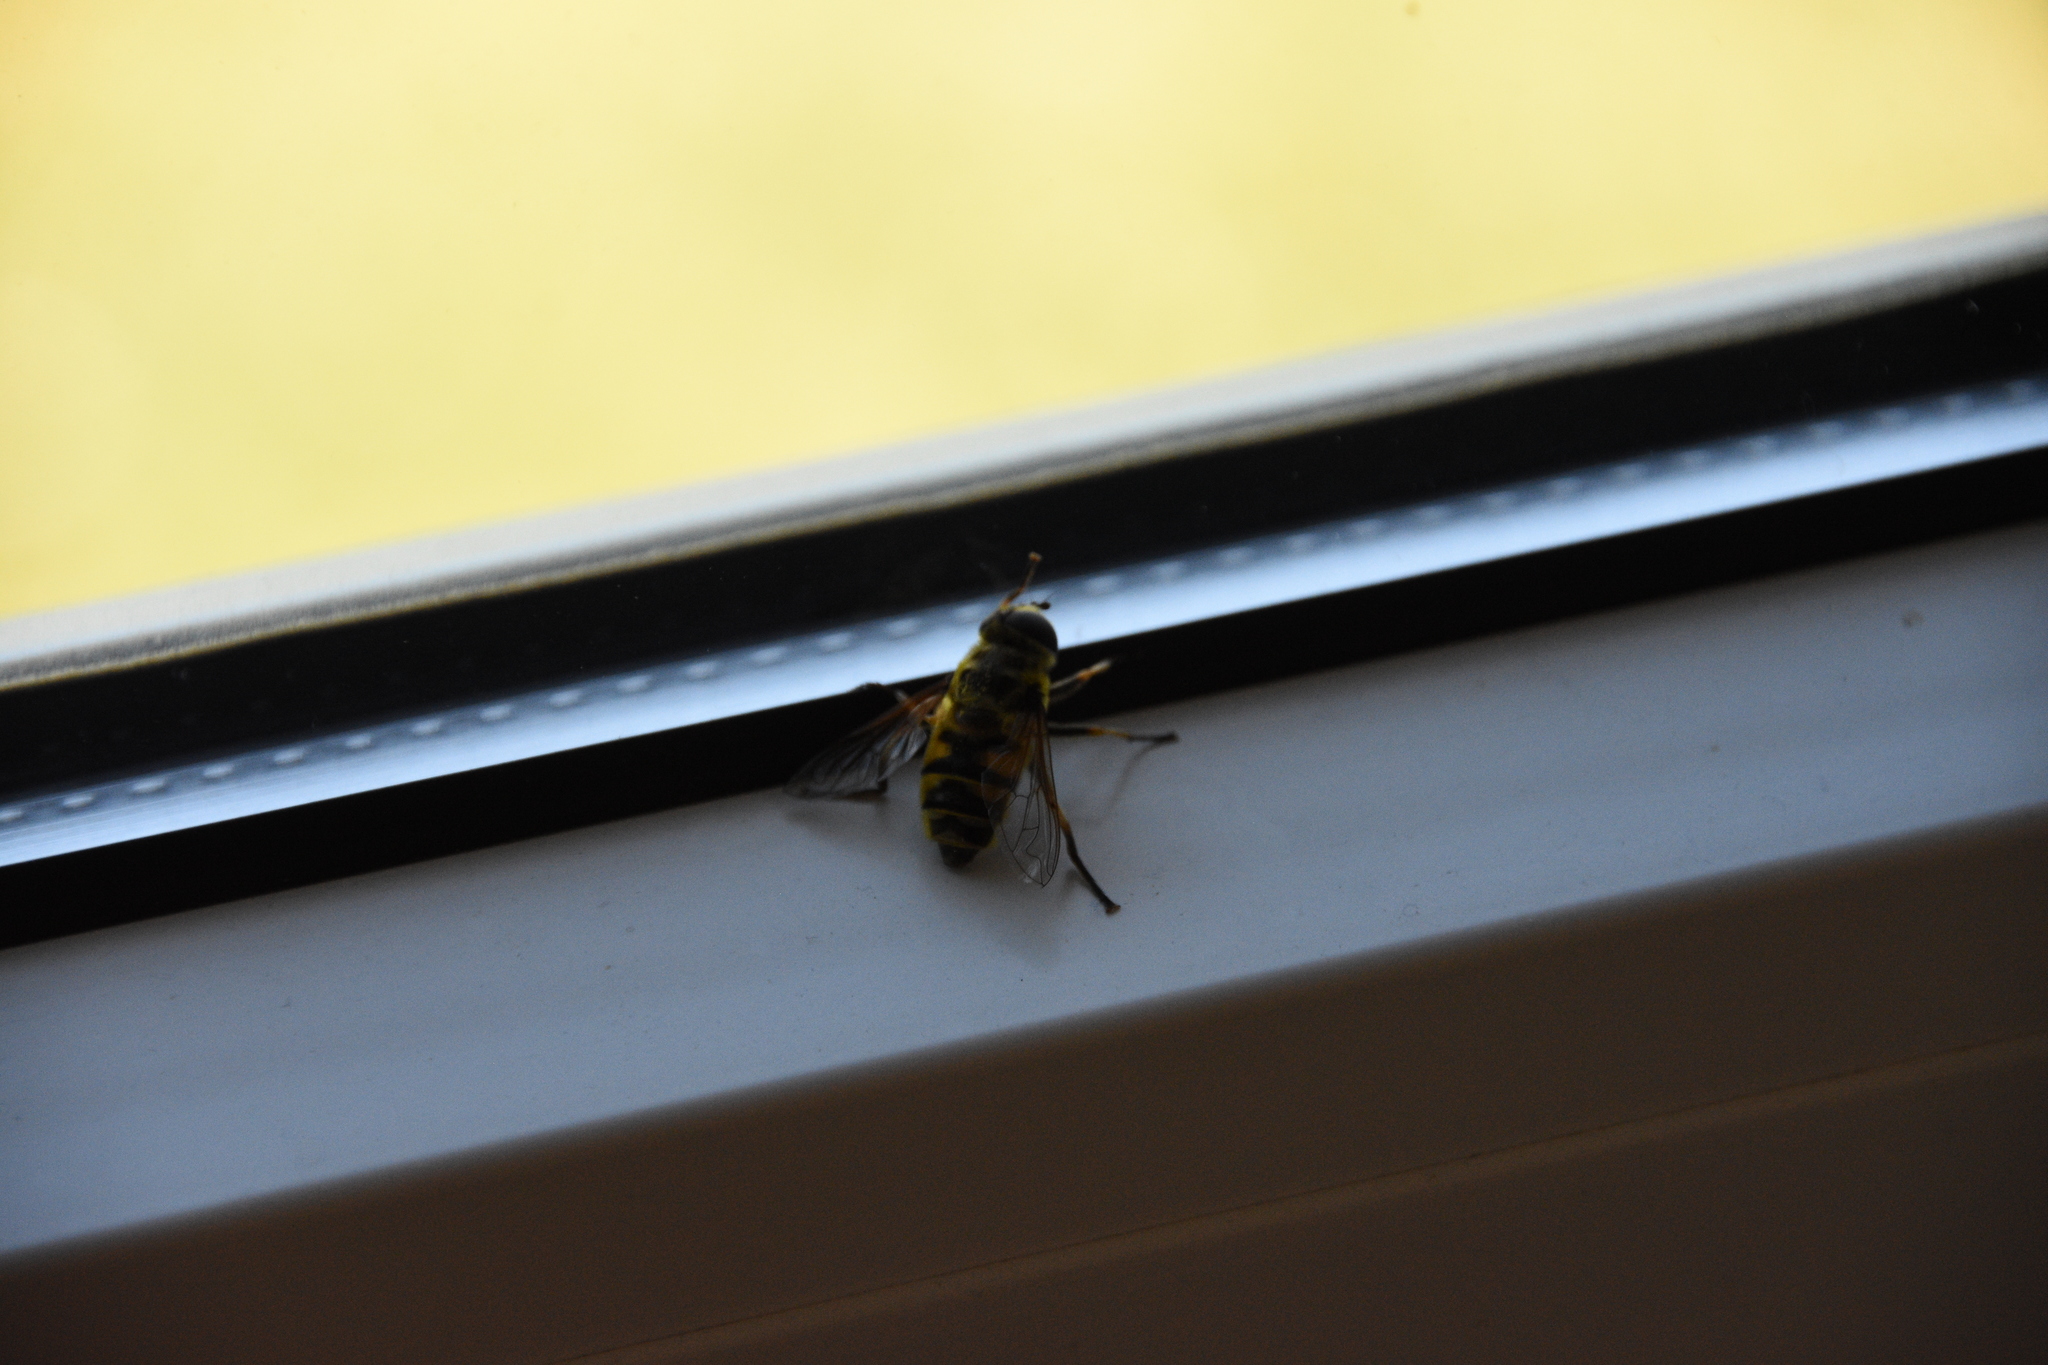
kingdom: Animalia
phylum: Arthropoda
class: Insecta
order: Diptera
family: Syrphidae
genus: Myathropa
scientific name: Myathropa florea
